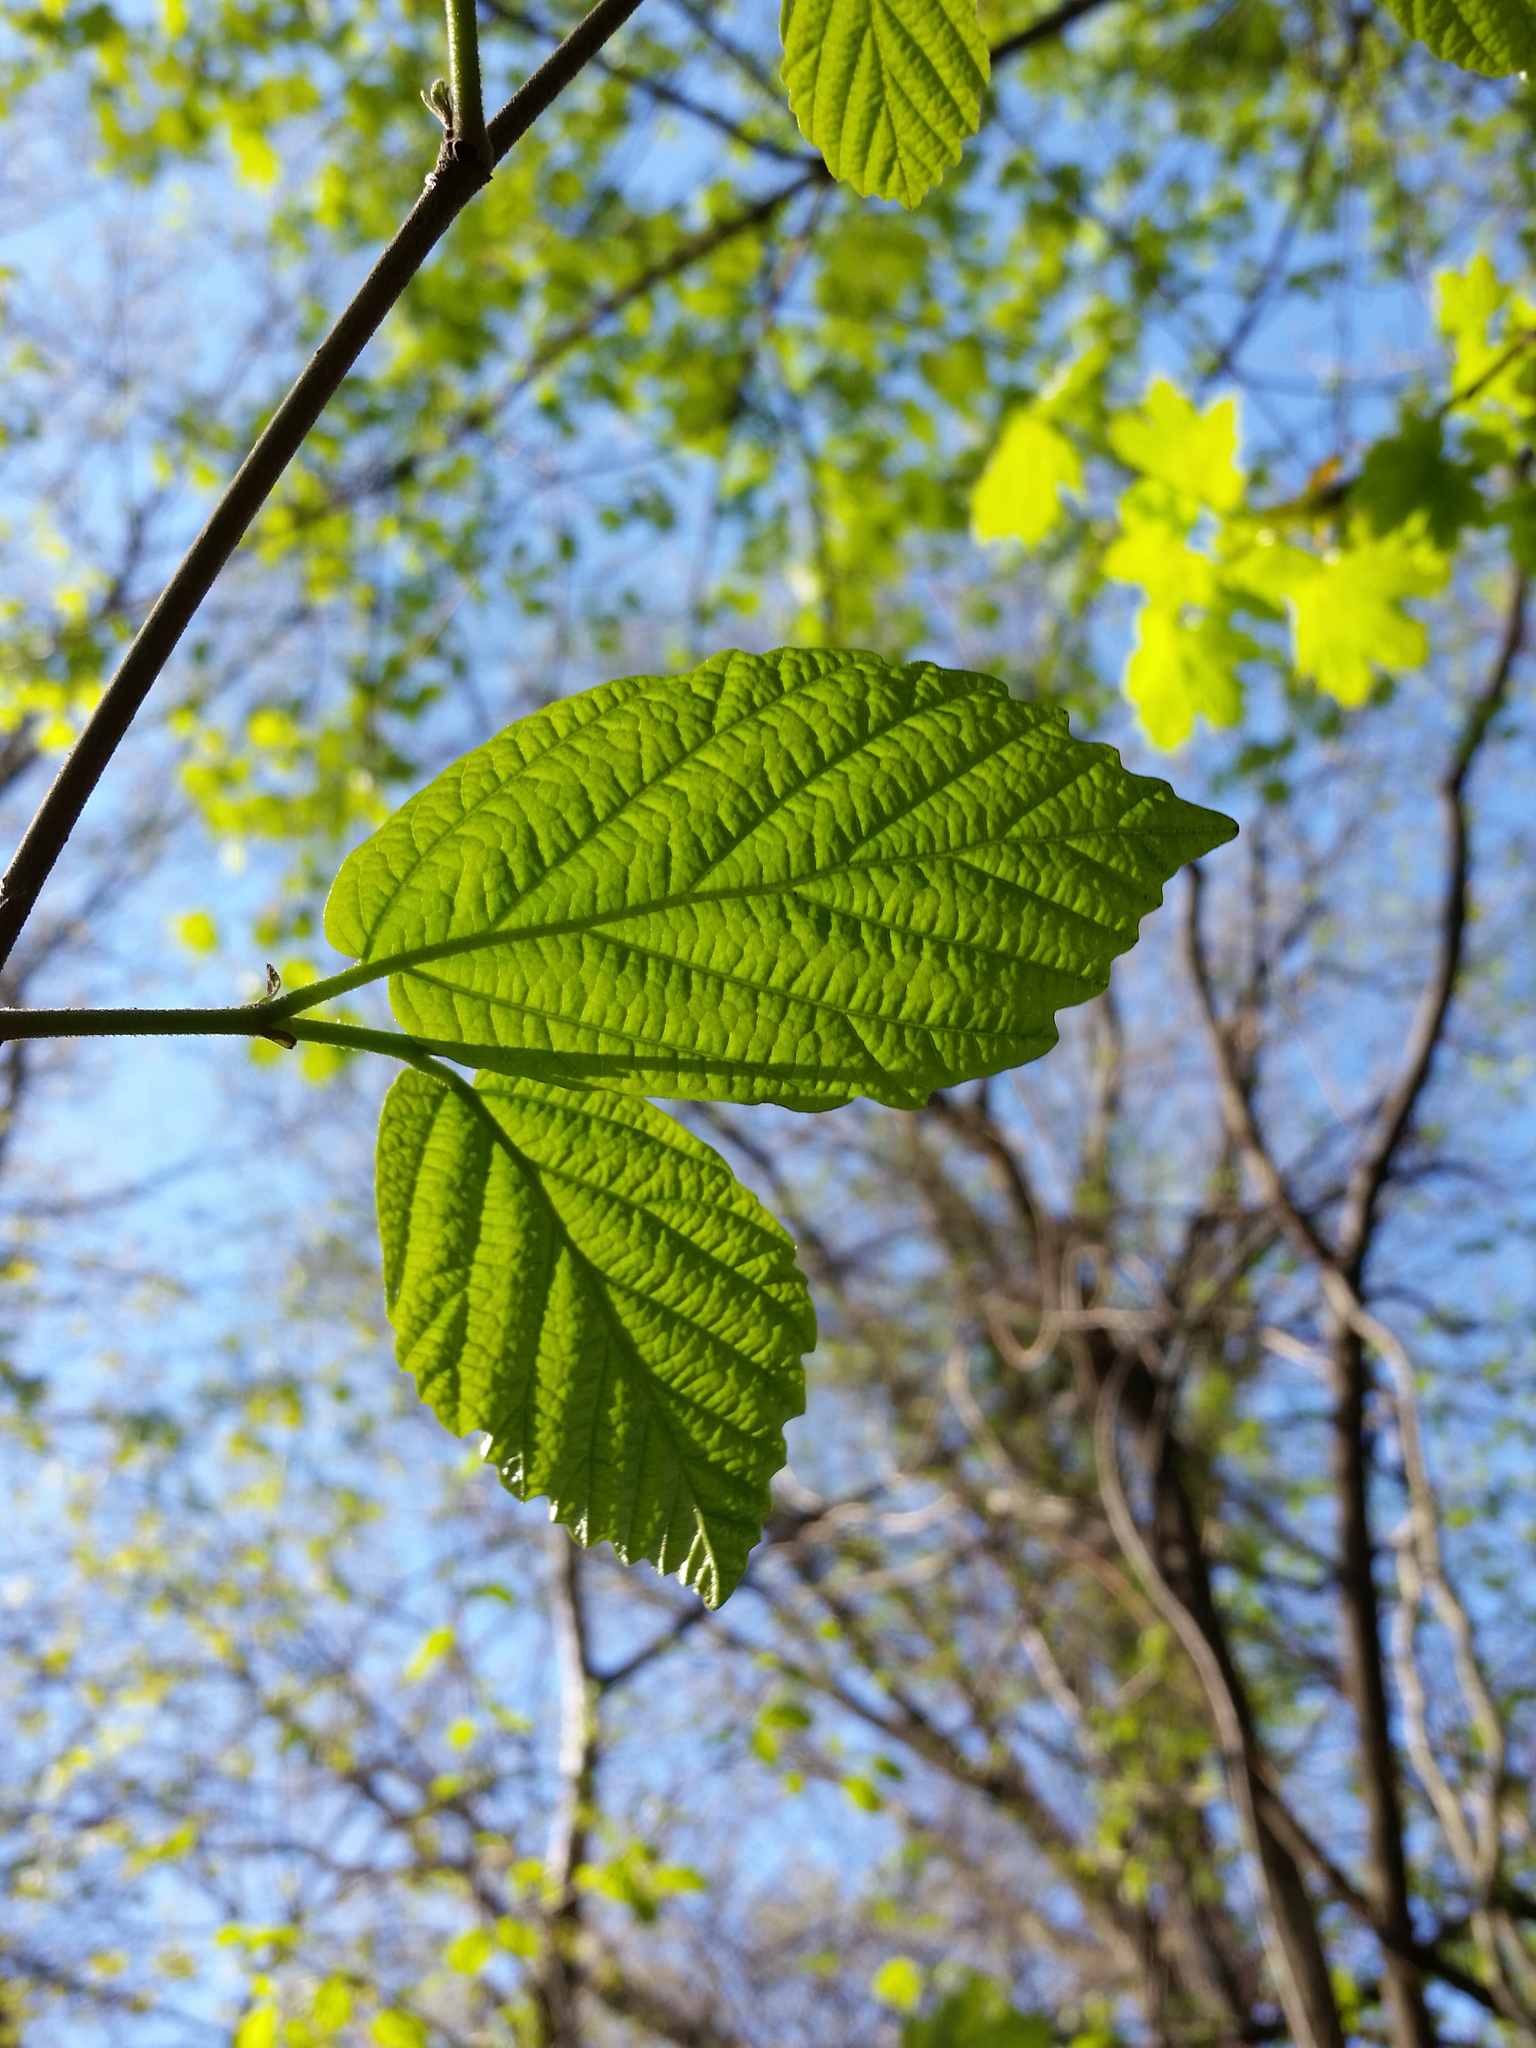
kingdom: Plantae
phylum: Tracheophyta
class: Magnoliopsida
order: Saxifragales
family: Hamamelidaceae
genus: Hamamelis
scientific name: Hamamelis virginiana
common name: Witch-hazel
